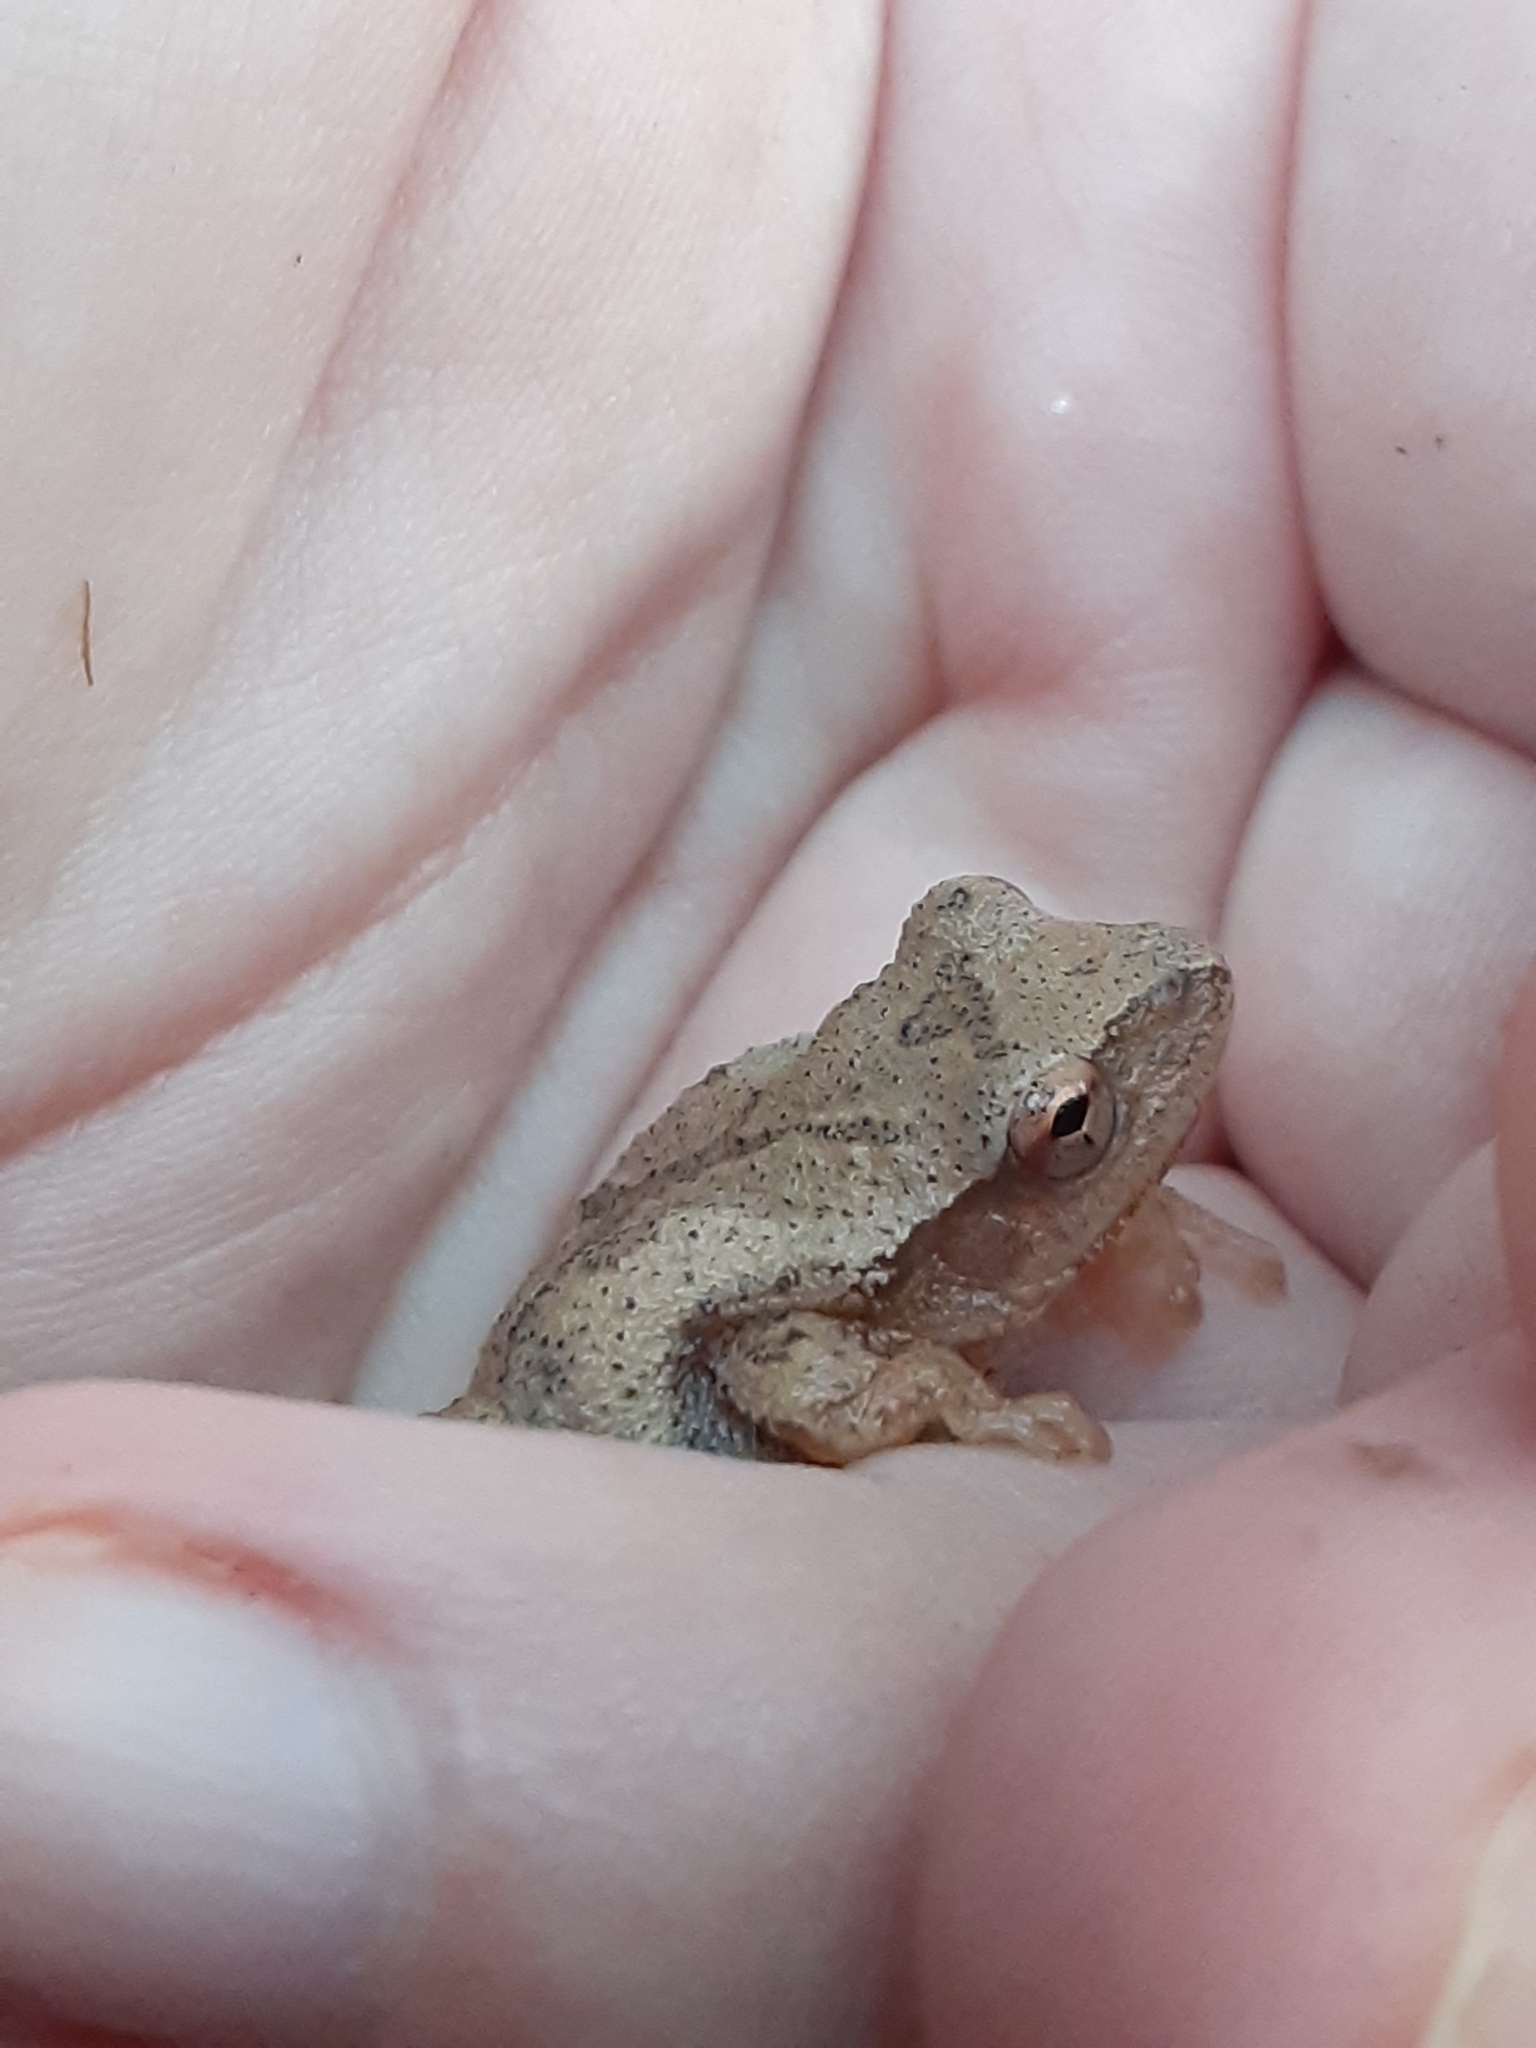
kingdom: Animalia
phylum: Chordata
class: Amphibia
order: Anura
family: Hylidae
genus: Pseudacris
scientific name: Pseudacris crucifer
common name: Spring peeper
